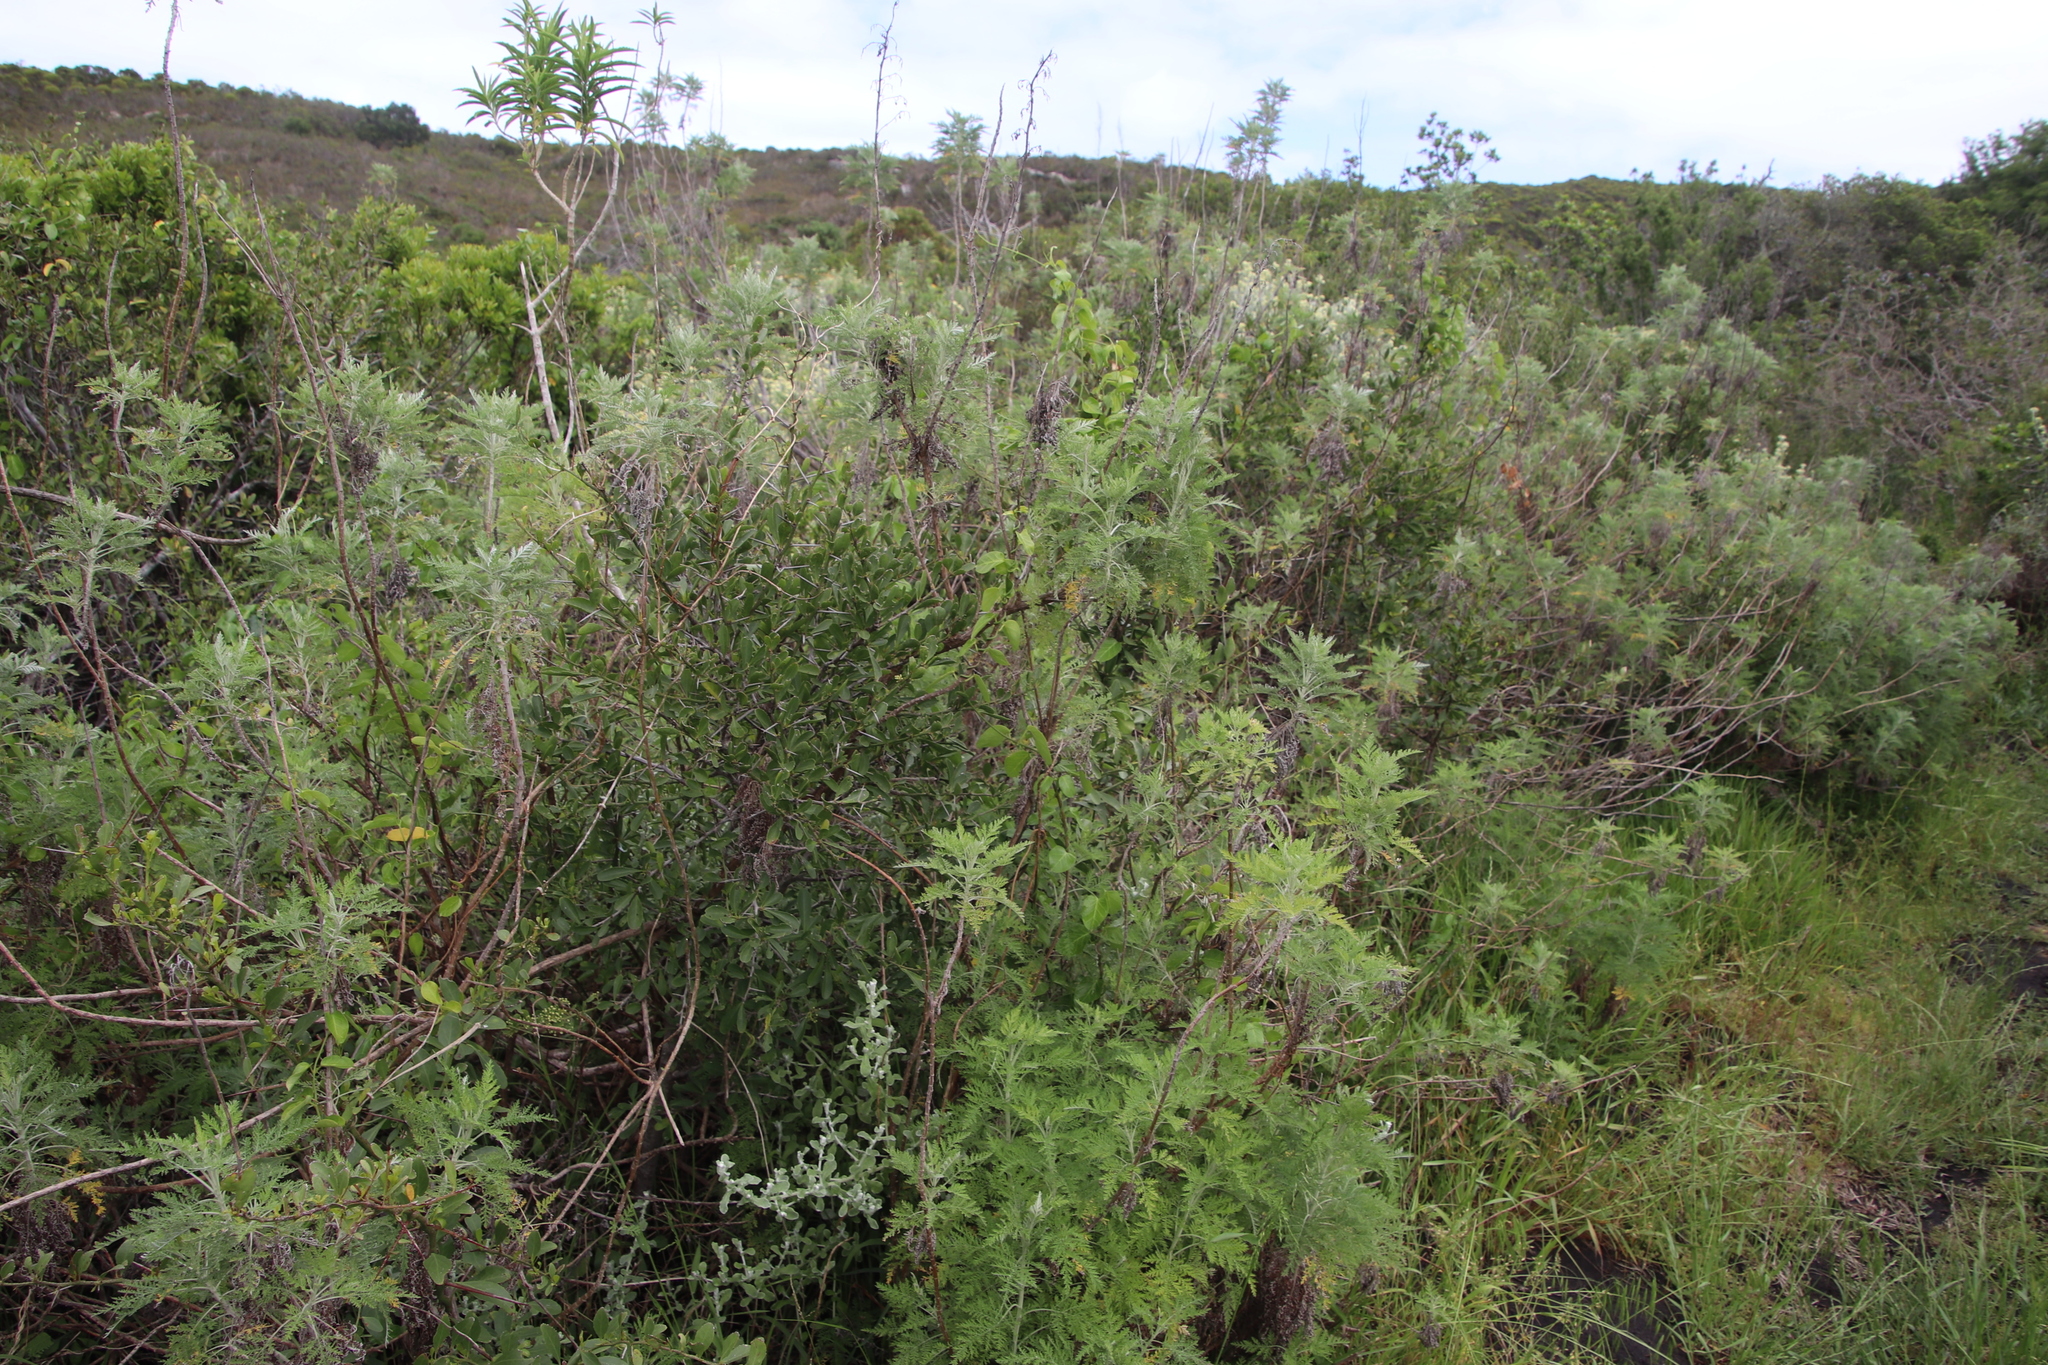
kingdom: Plantae
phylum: Tracheophyta
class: Magnoliopsida
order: Asterales
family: Asteraceae
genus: Artemisia
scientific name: Artemisia afra
